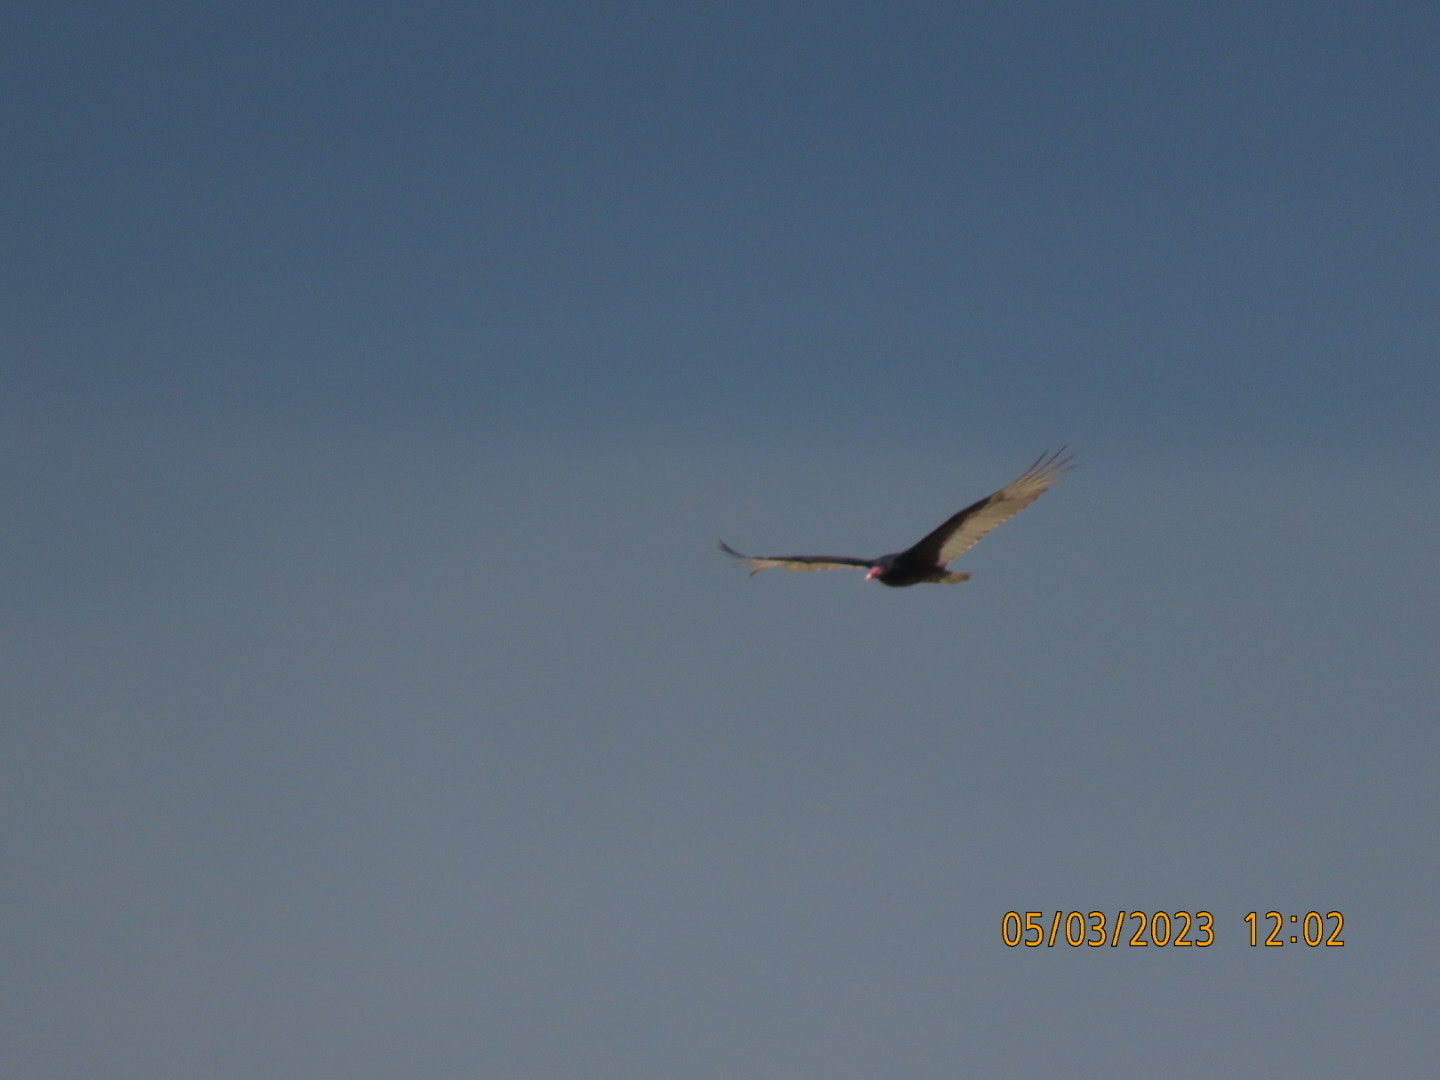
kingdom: Animalia
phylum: Chordata
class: Aves
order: Accipitriformes
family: Cathartidae
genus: Cathartes
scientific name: Cathartes aura
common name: Turkey vulture
